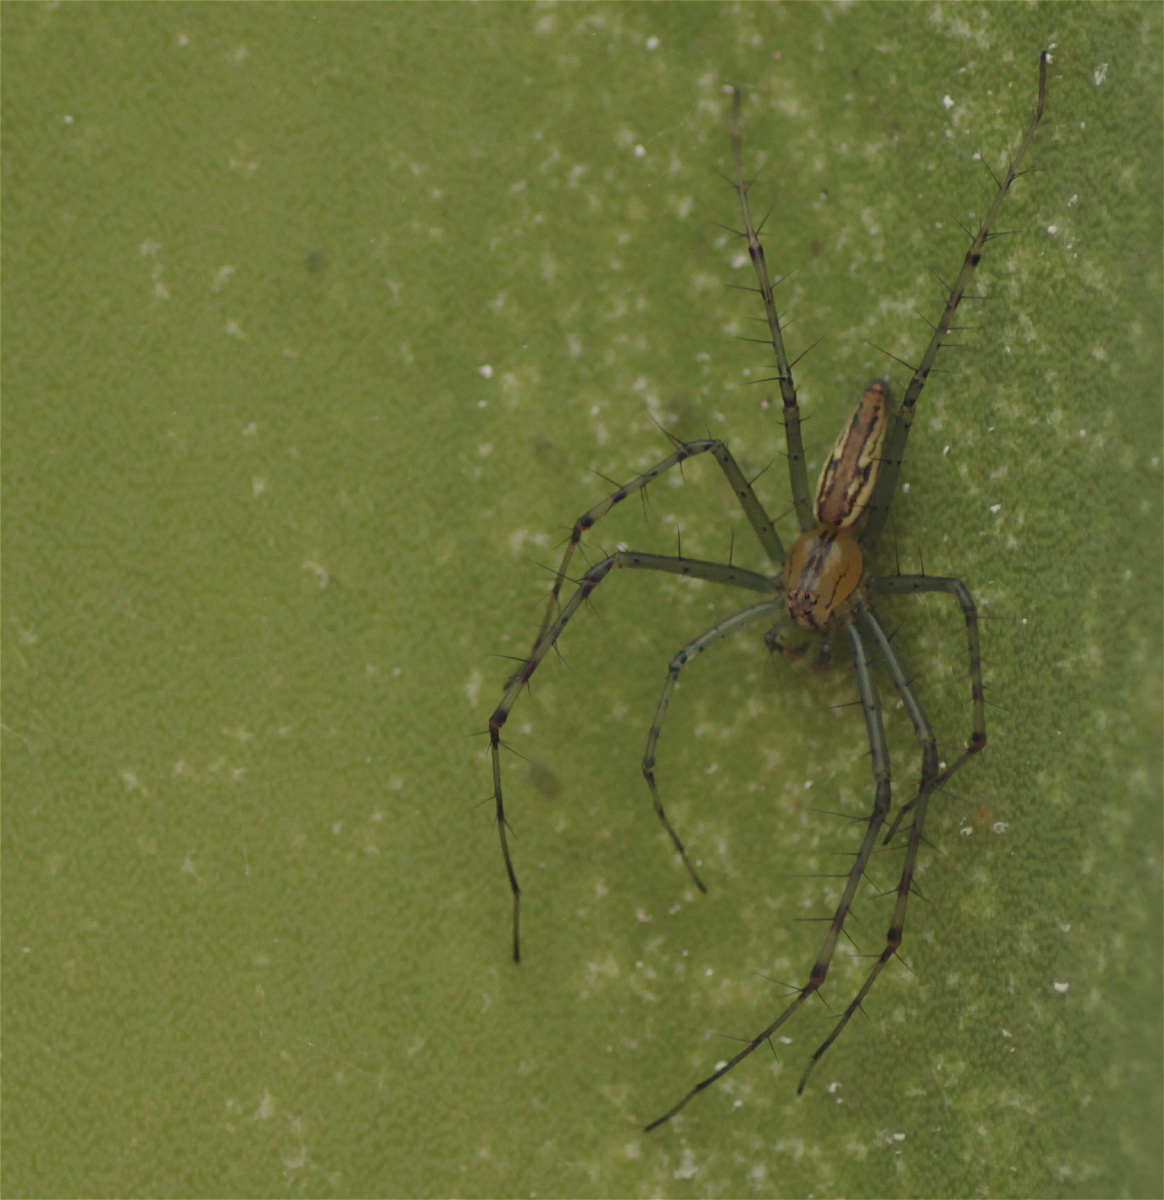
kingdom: Animalia
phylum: Arthropoda
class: Arachnida
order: Araneae
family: Oxyopidae
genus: Peucetia
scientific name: Peucetia rubrolineata
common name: Lynx spiders
